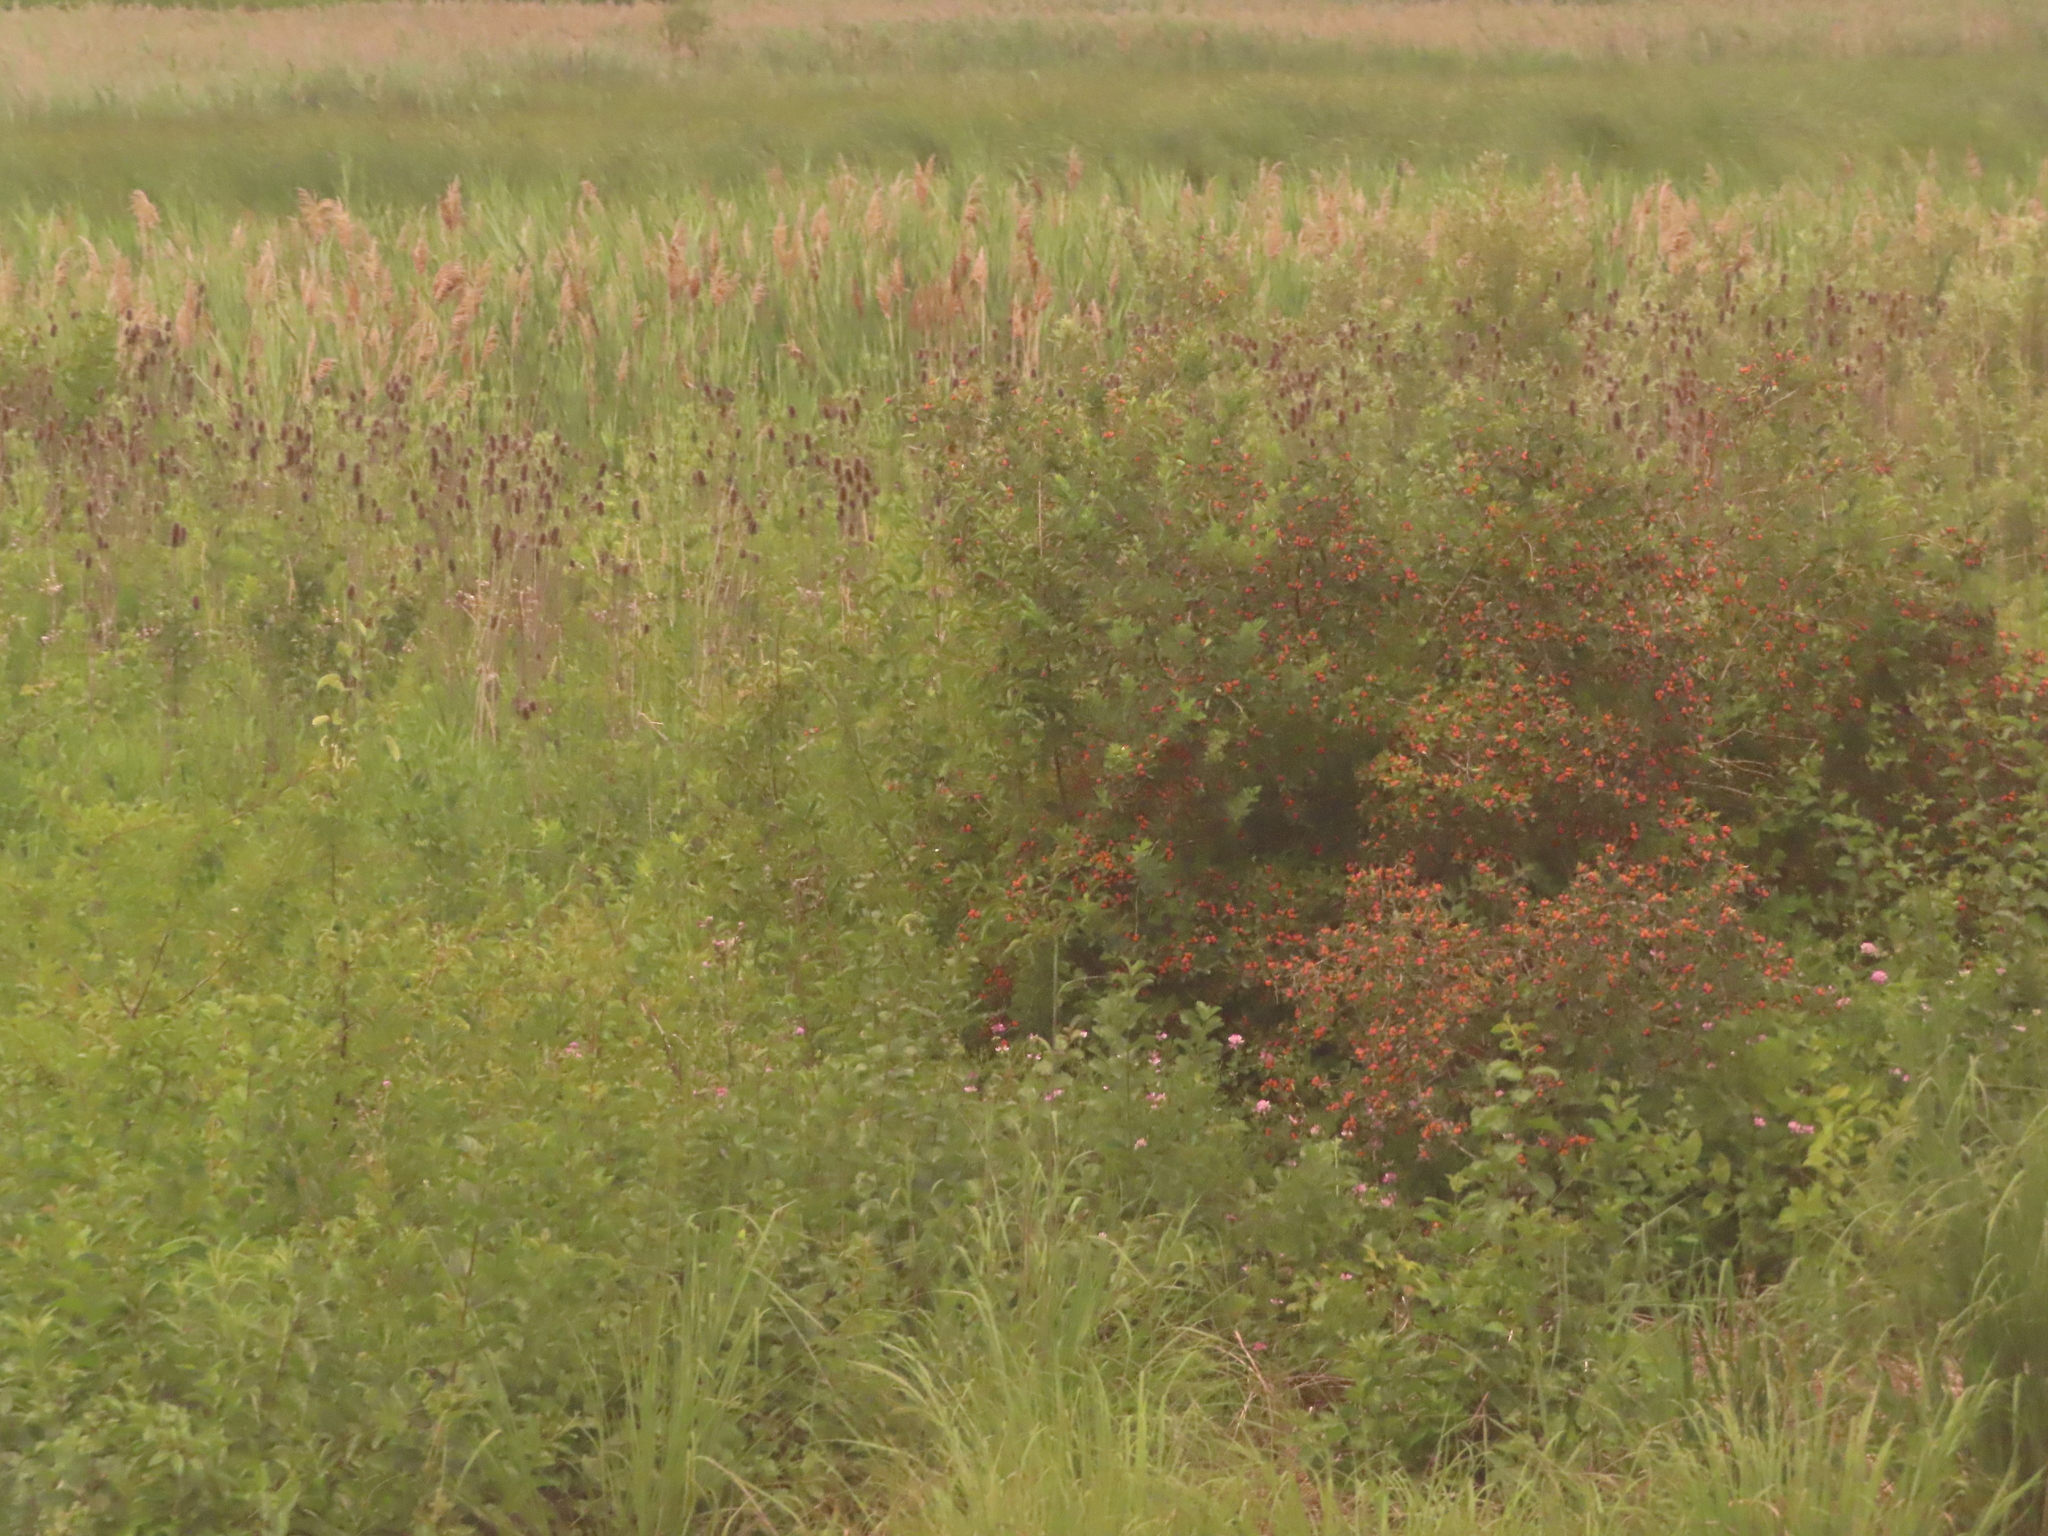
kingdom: Plantae
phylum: Tracheophyta
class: Liliopsida
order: Poales
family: Poaceae
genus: Phragmites
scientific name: Phragmites australis
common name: Common reed
